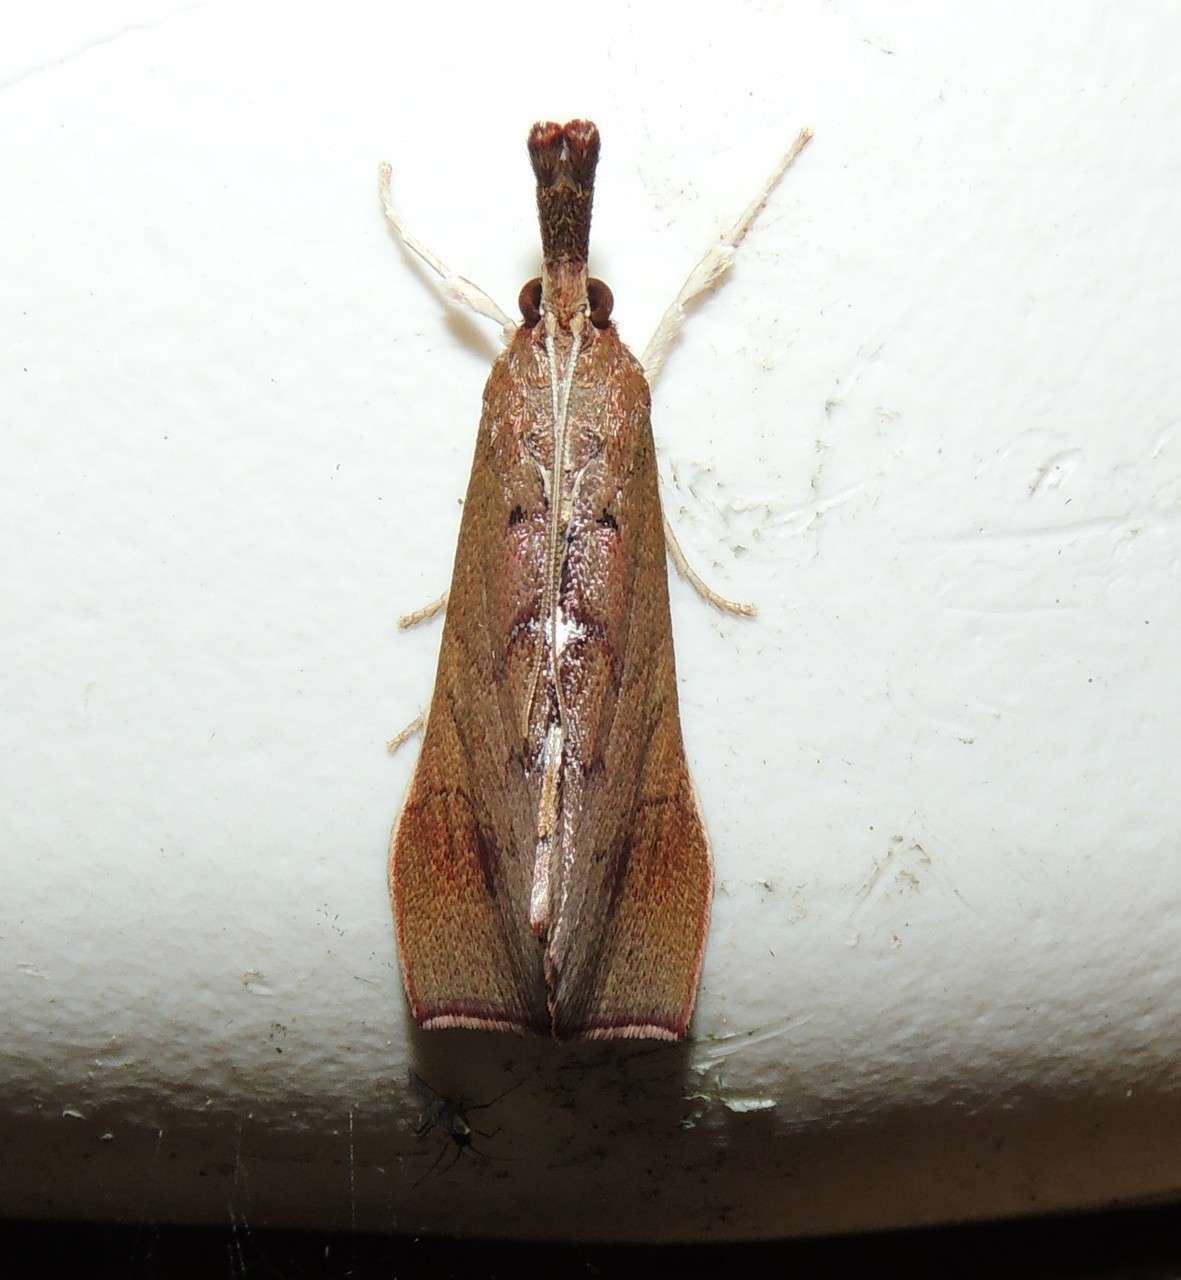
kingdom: Animalia
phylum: Arthropoda
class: Insecta
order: Lepidoptera
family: Pyralidae
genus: Anemosa
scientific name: Anemosa exanthes
